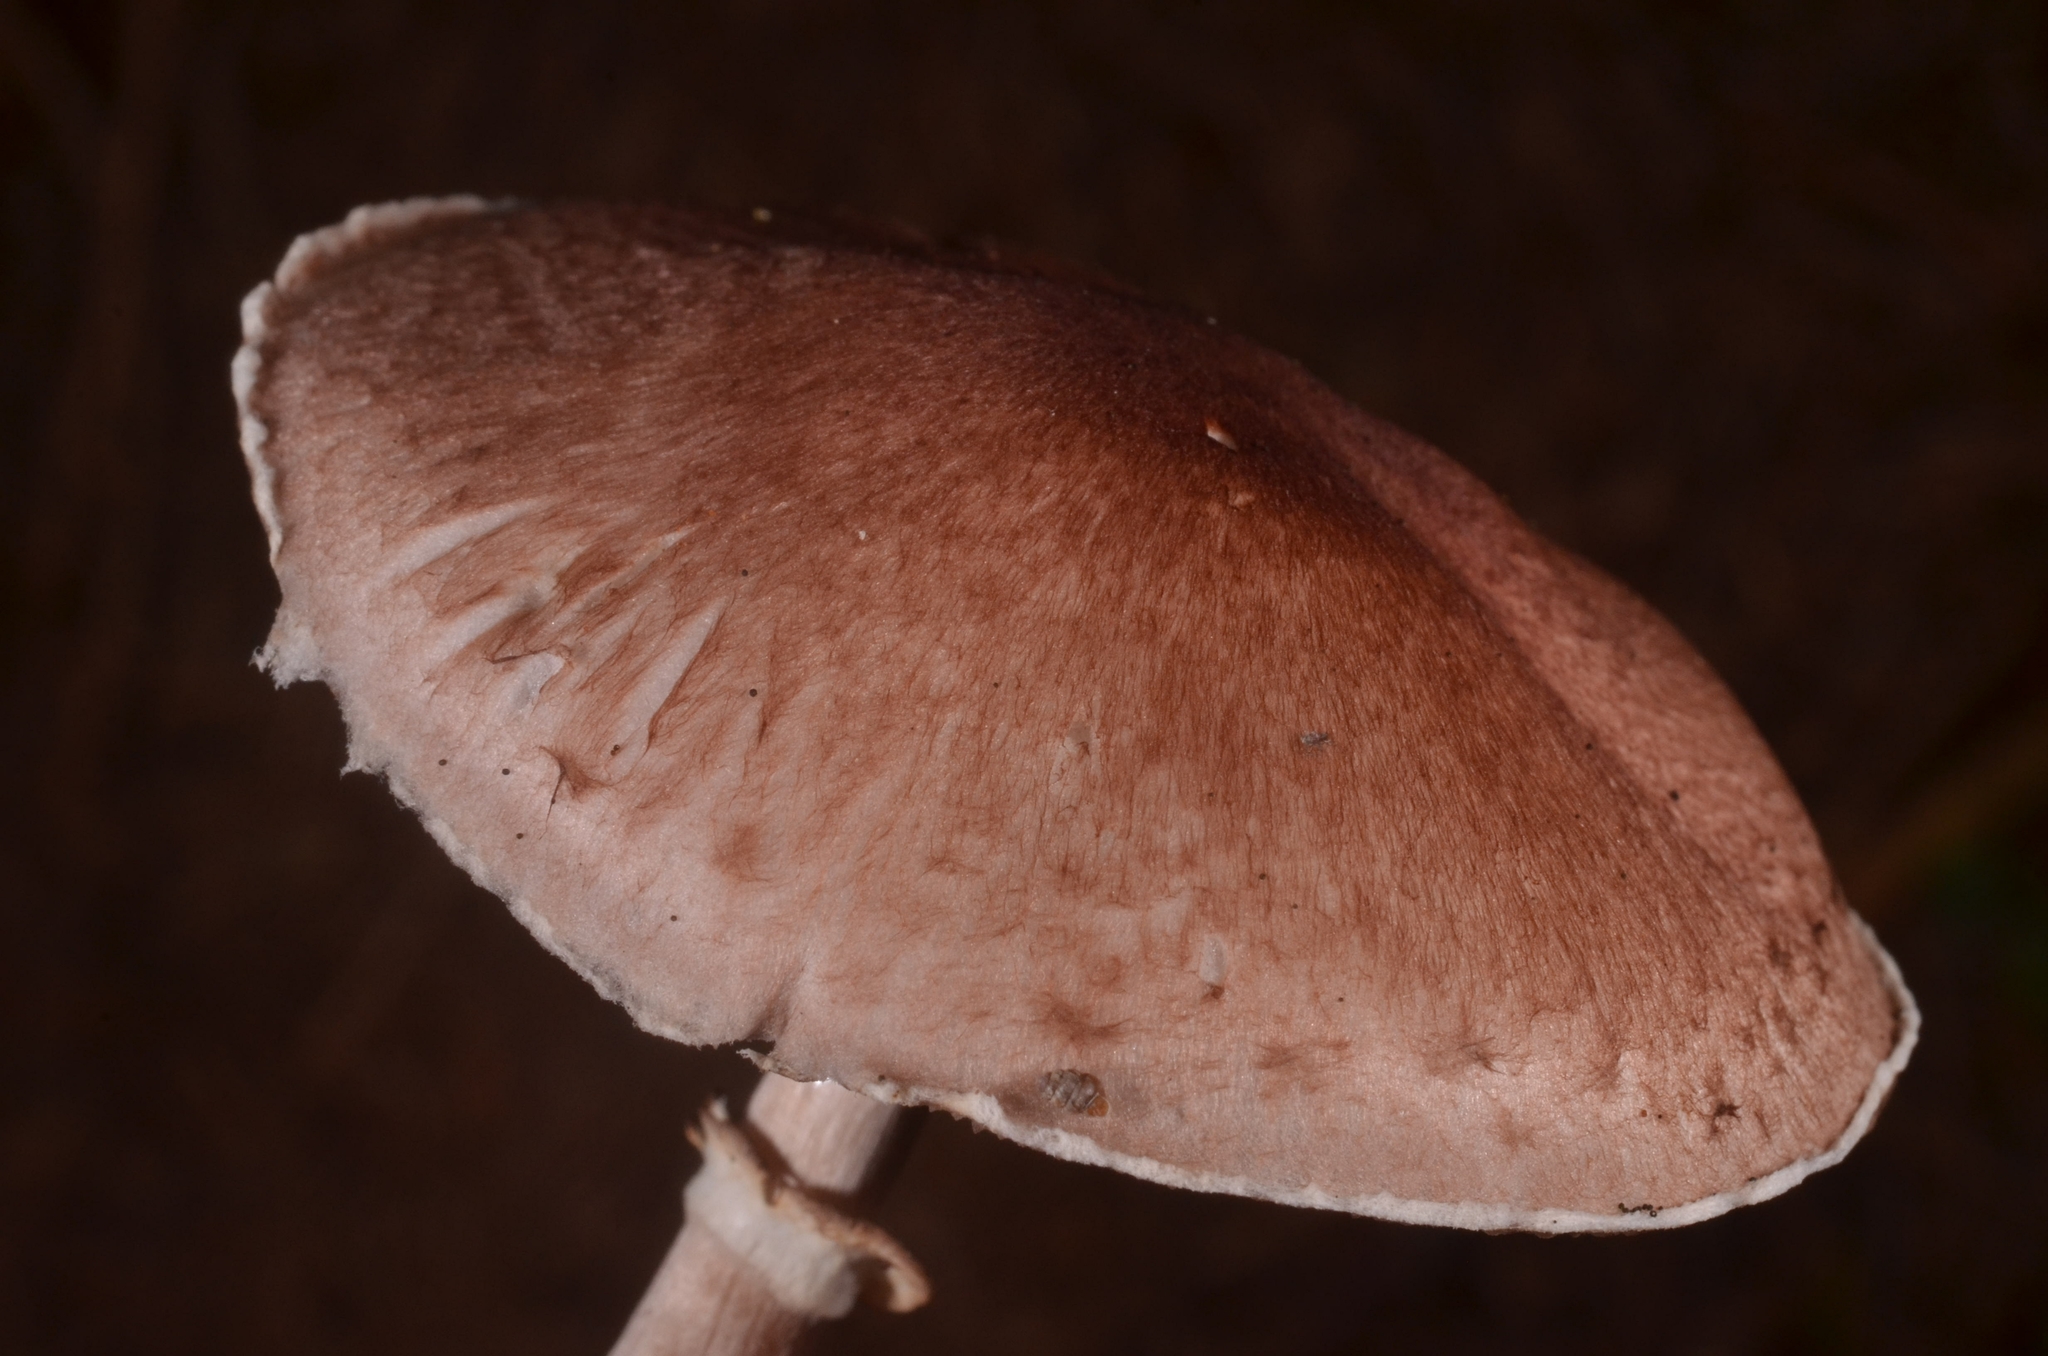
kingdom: Fungi
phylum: Basidiomycota
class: Agaricomycetes
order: Agaricales
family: Agaricaceae
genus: Agaricus
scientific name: Agaricus sylvaticus
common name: Blushing wood mushroom
